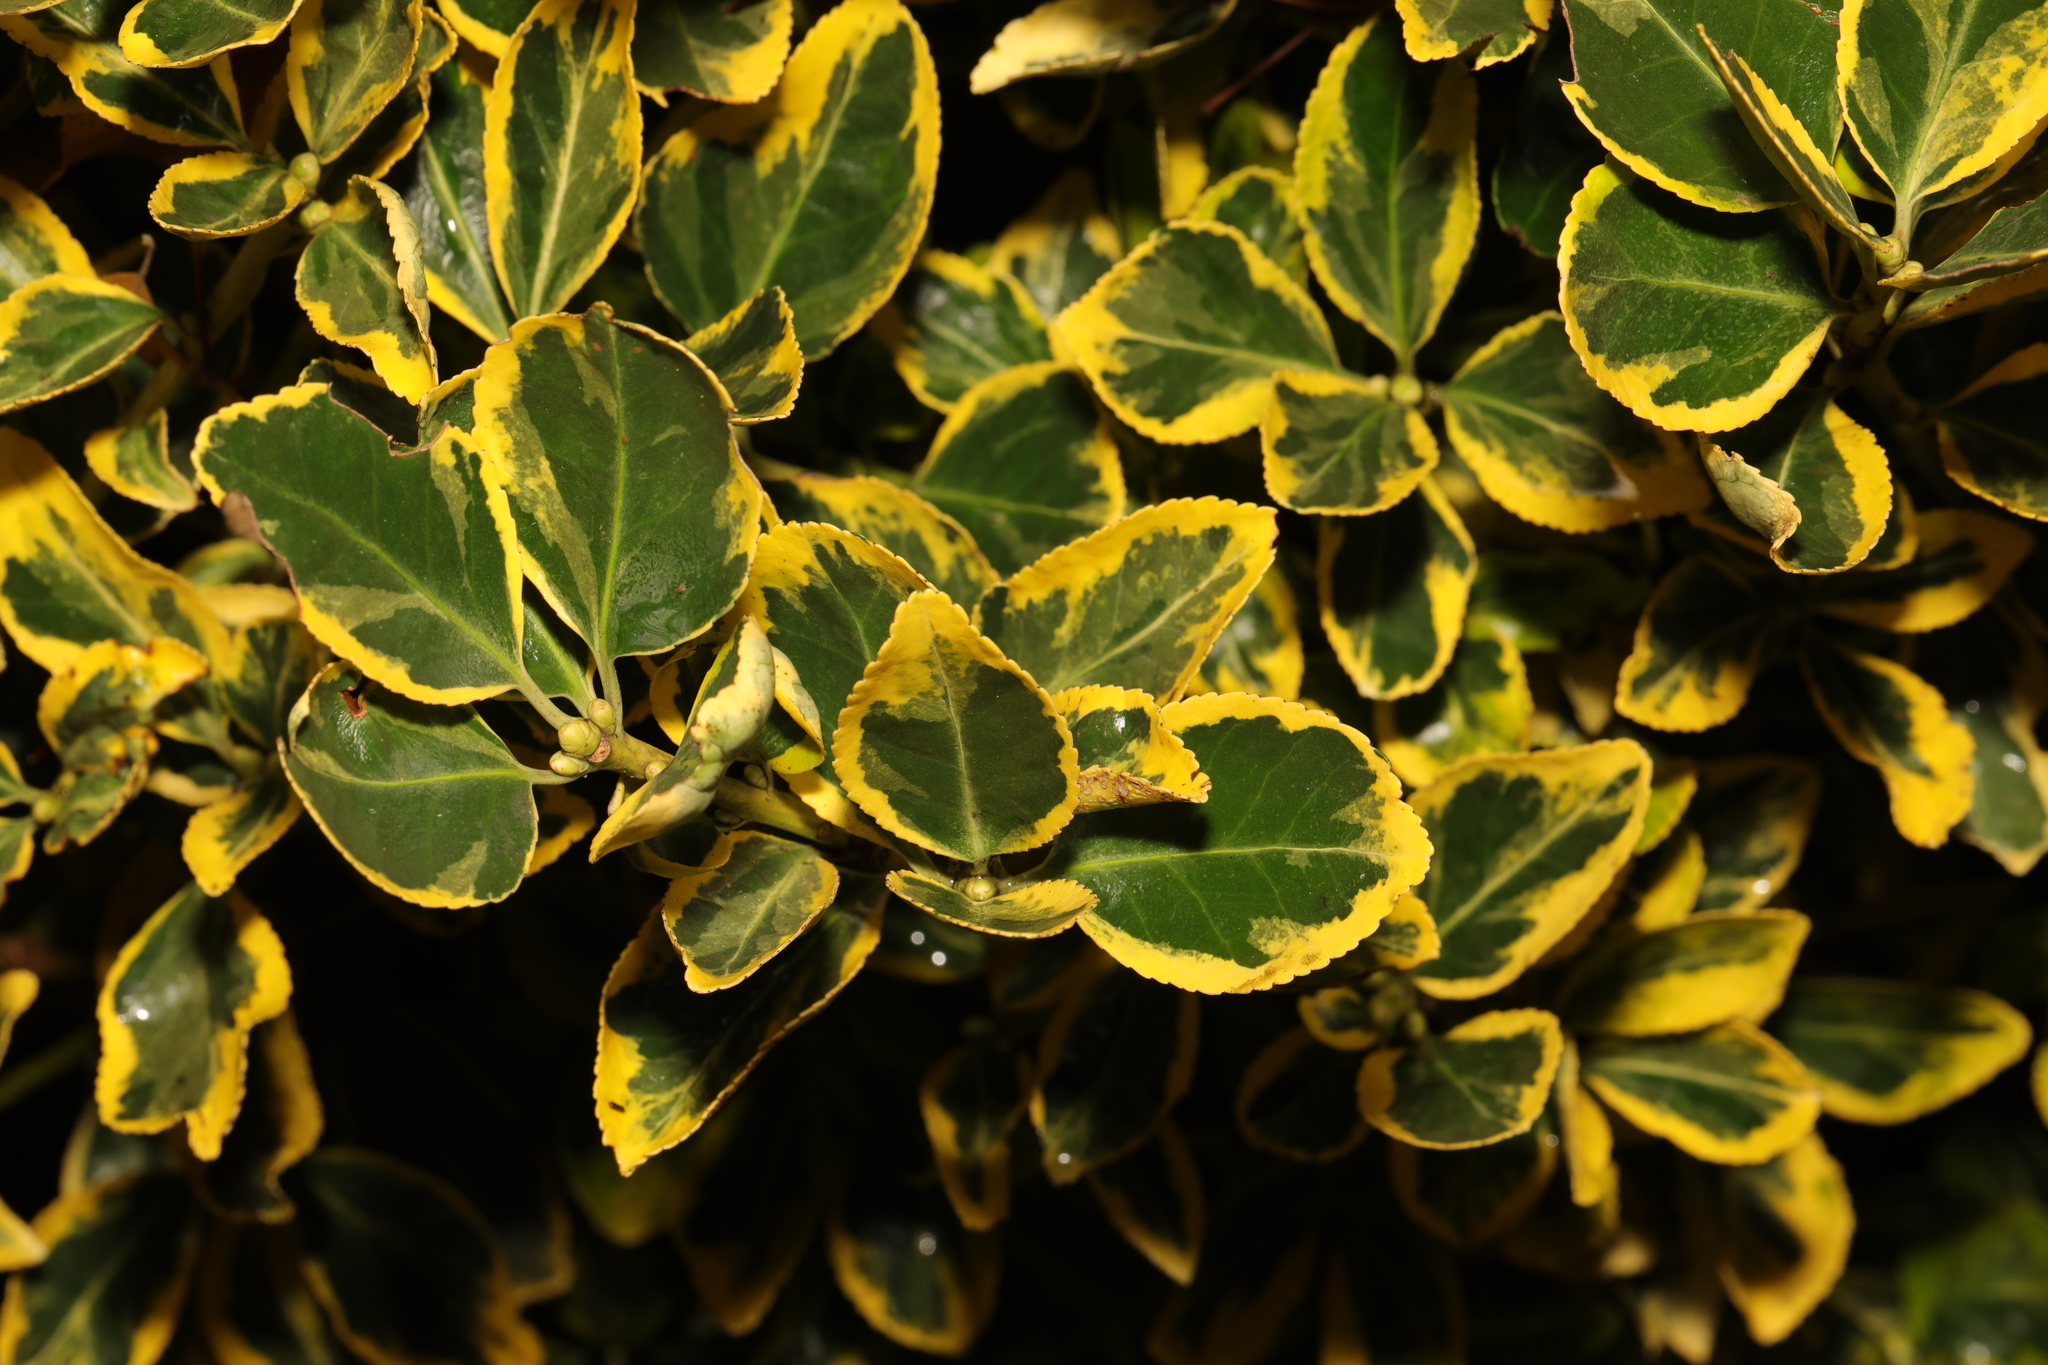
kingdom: Plantae
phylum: Tracheophyta
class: Magnoliopsida
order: Celastrales
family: Celastraceae
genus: Euonymus
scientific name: Euonymus japonicus
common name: Japanese spindletree
